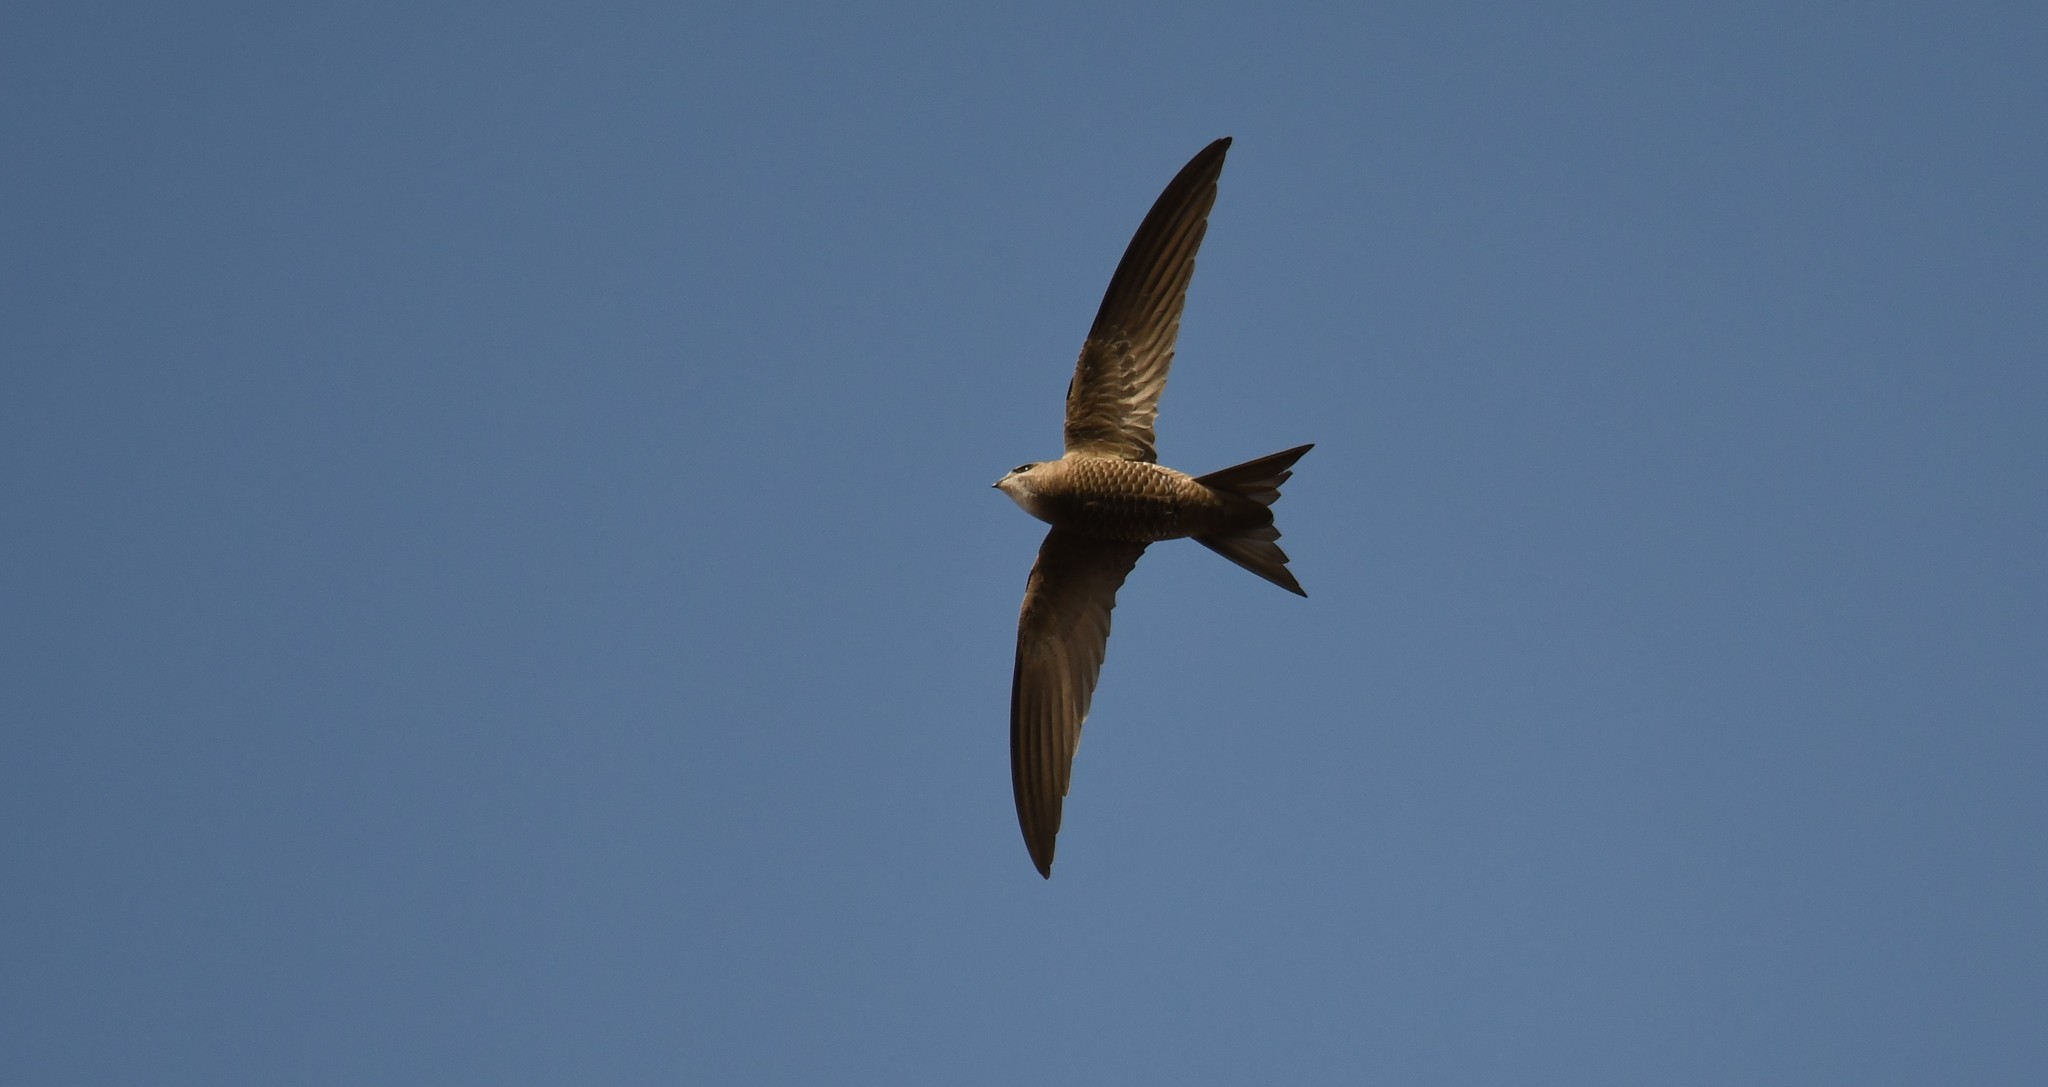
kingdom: Animalia
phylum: Chordata
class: Aves
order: Apodiformes
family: Apodidae
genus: Apus
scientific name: Apus pallidus
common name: Pallid swift
